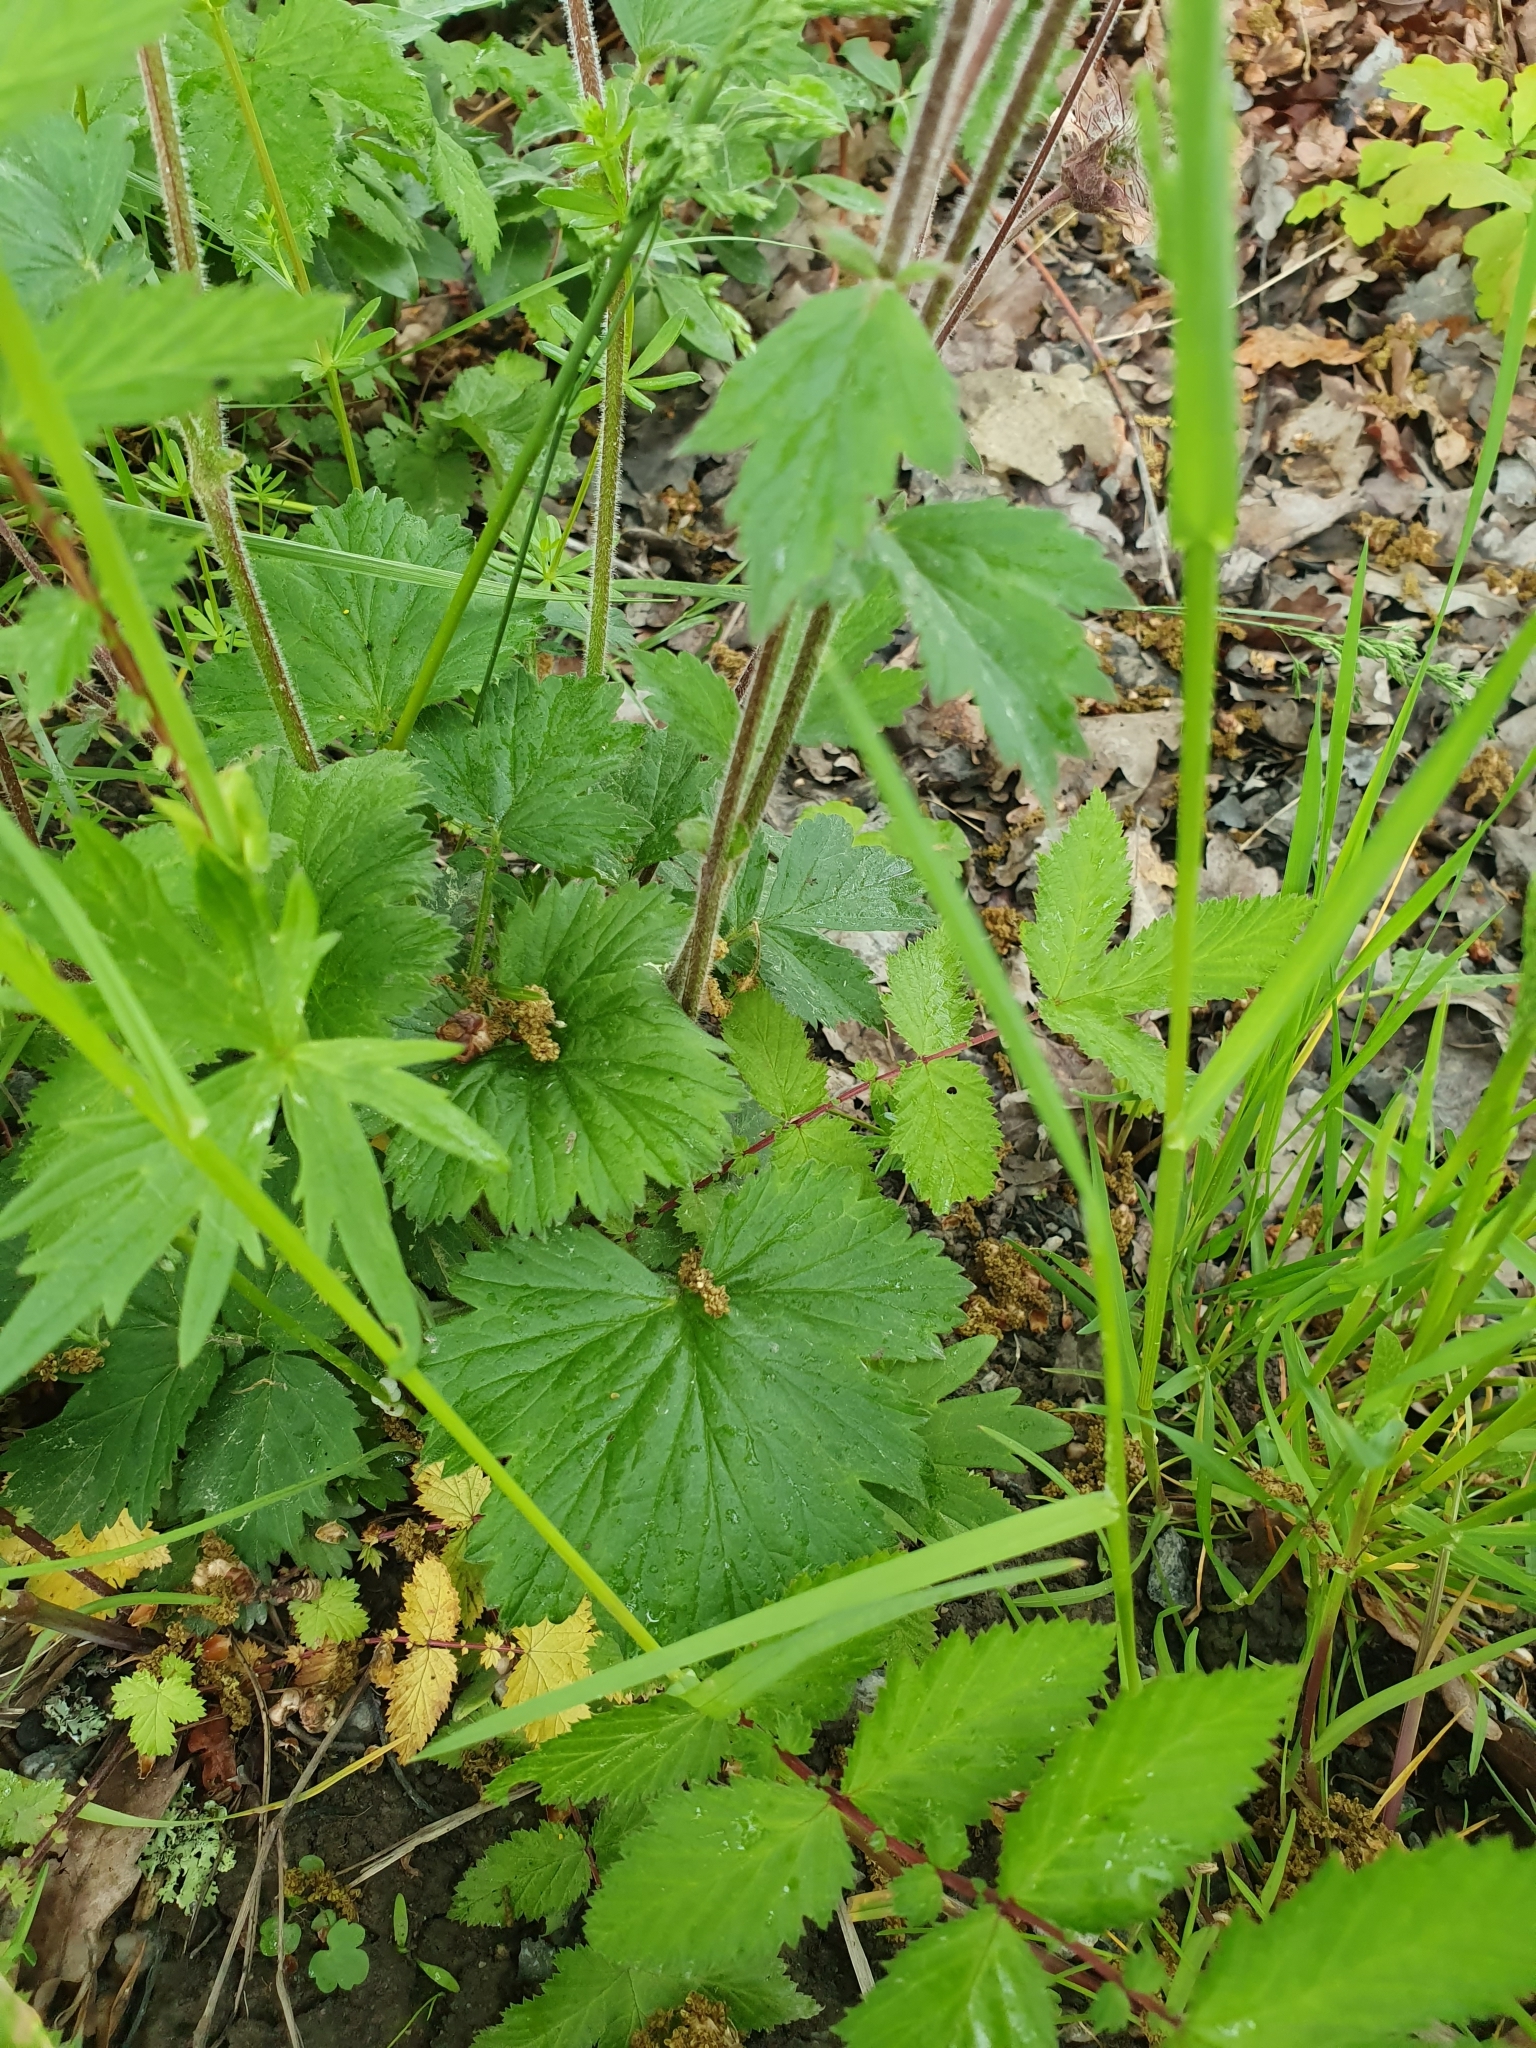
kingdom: Plantae
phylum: Tracheophyta
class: Magnoliopsida
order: Rosales
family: Rosaceae
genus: Geum
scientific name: Geum rivale
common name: Water avens
